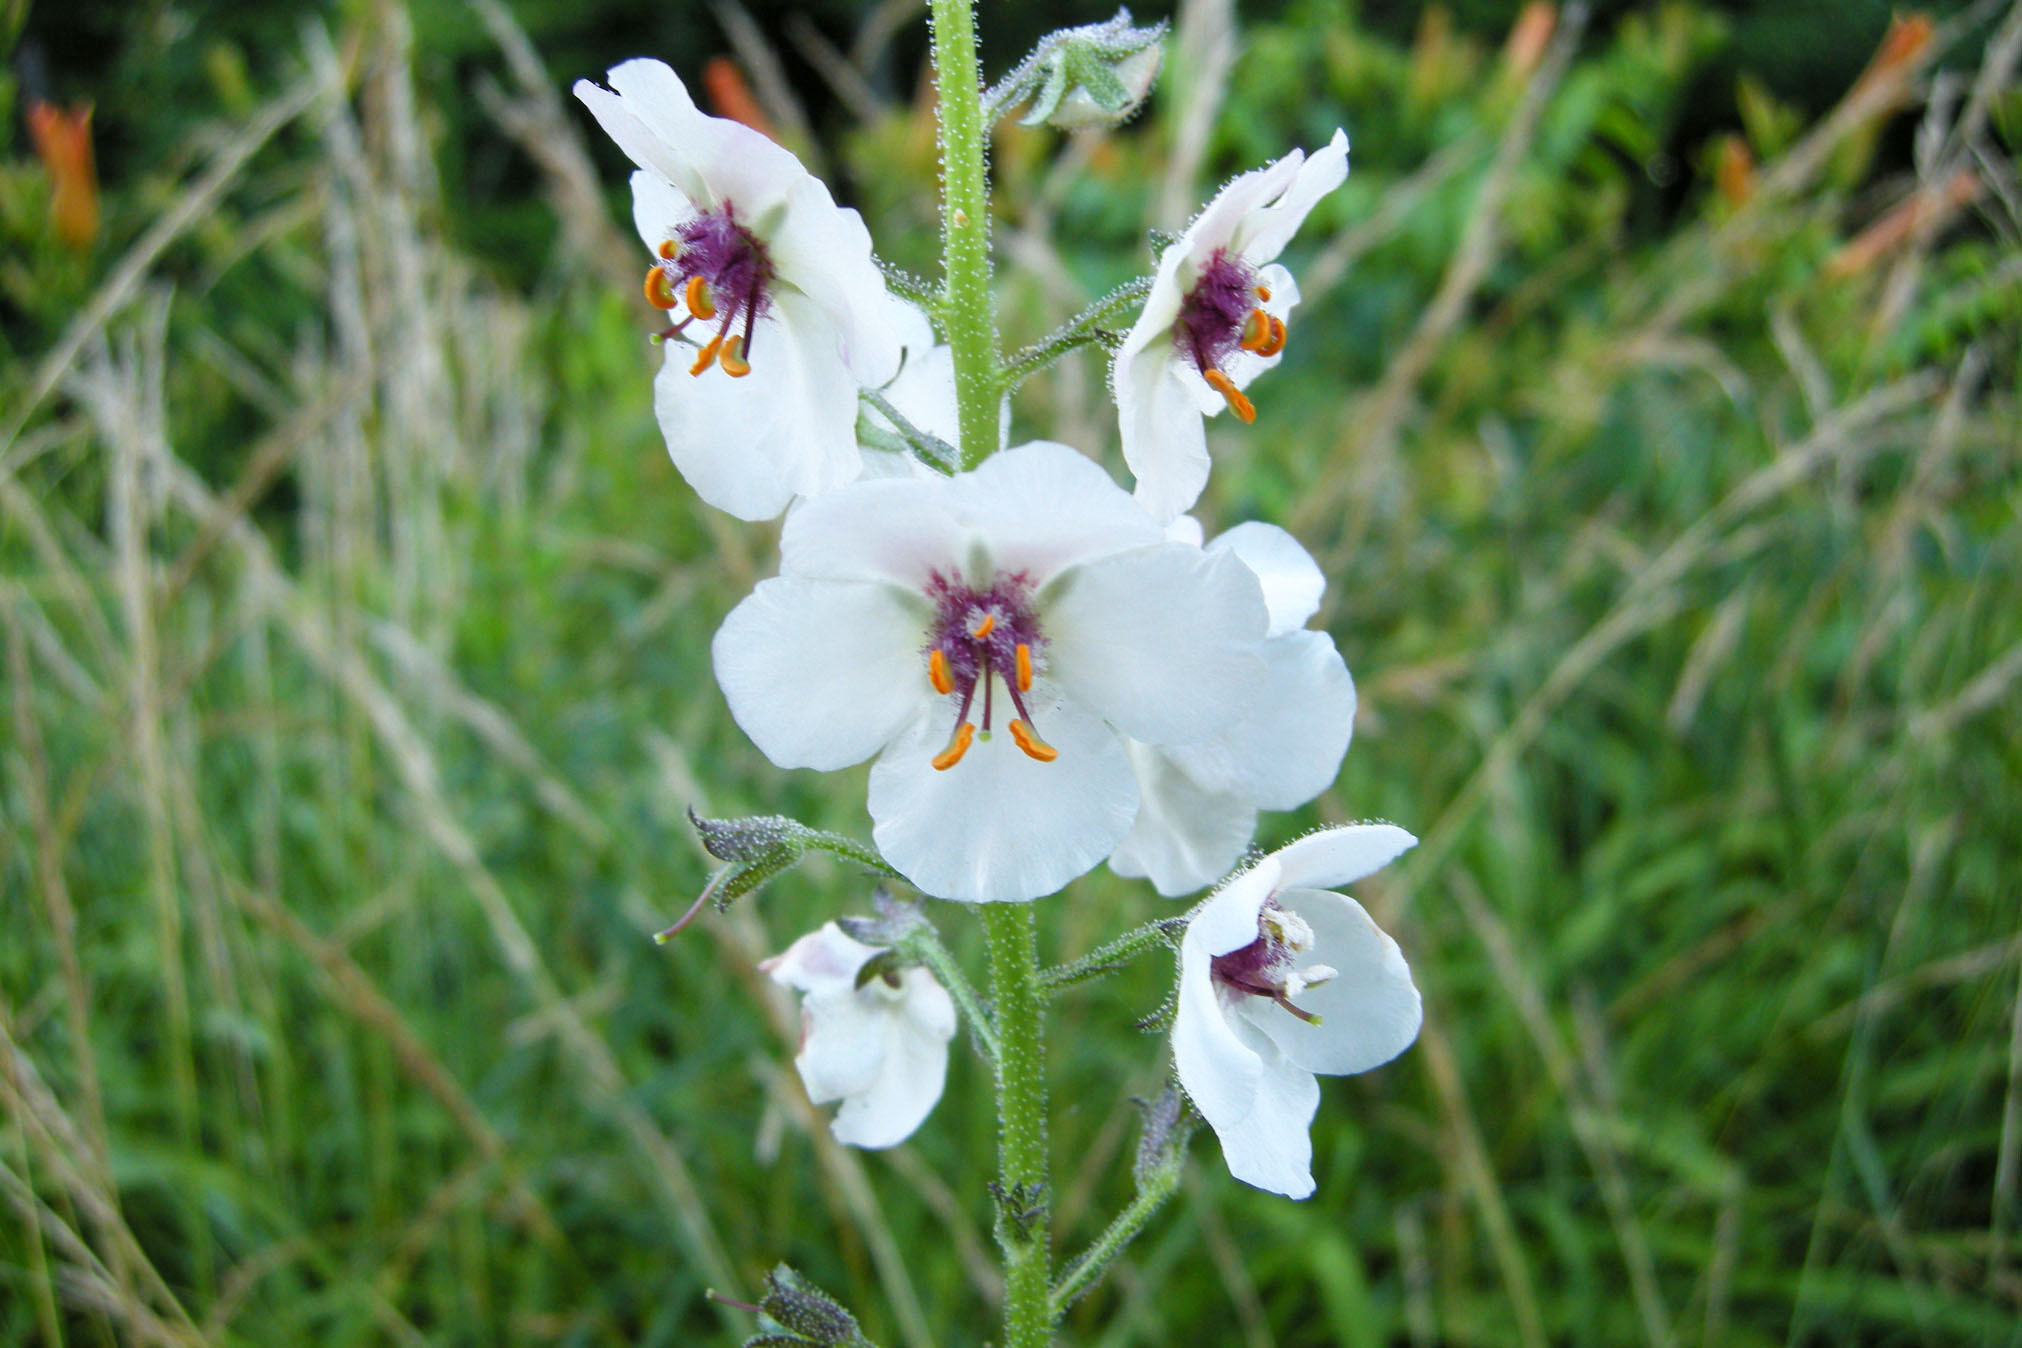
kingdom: Plantae
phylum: Tracheophyta
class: Magnoliopsida
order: Lamiales
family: Scrophulariaceae
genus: Verbascum
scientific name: Verbascum blattaria
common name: Moth mullein
